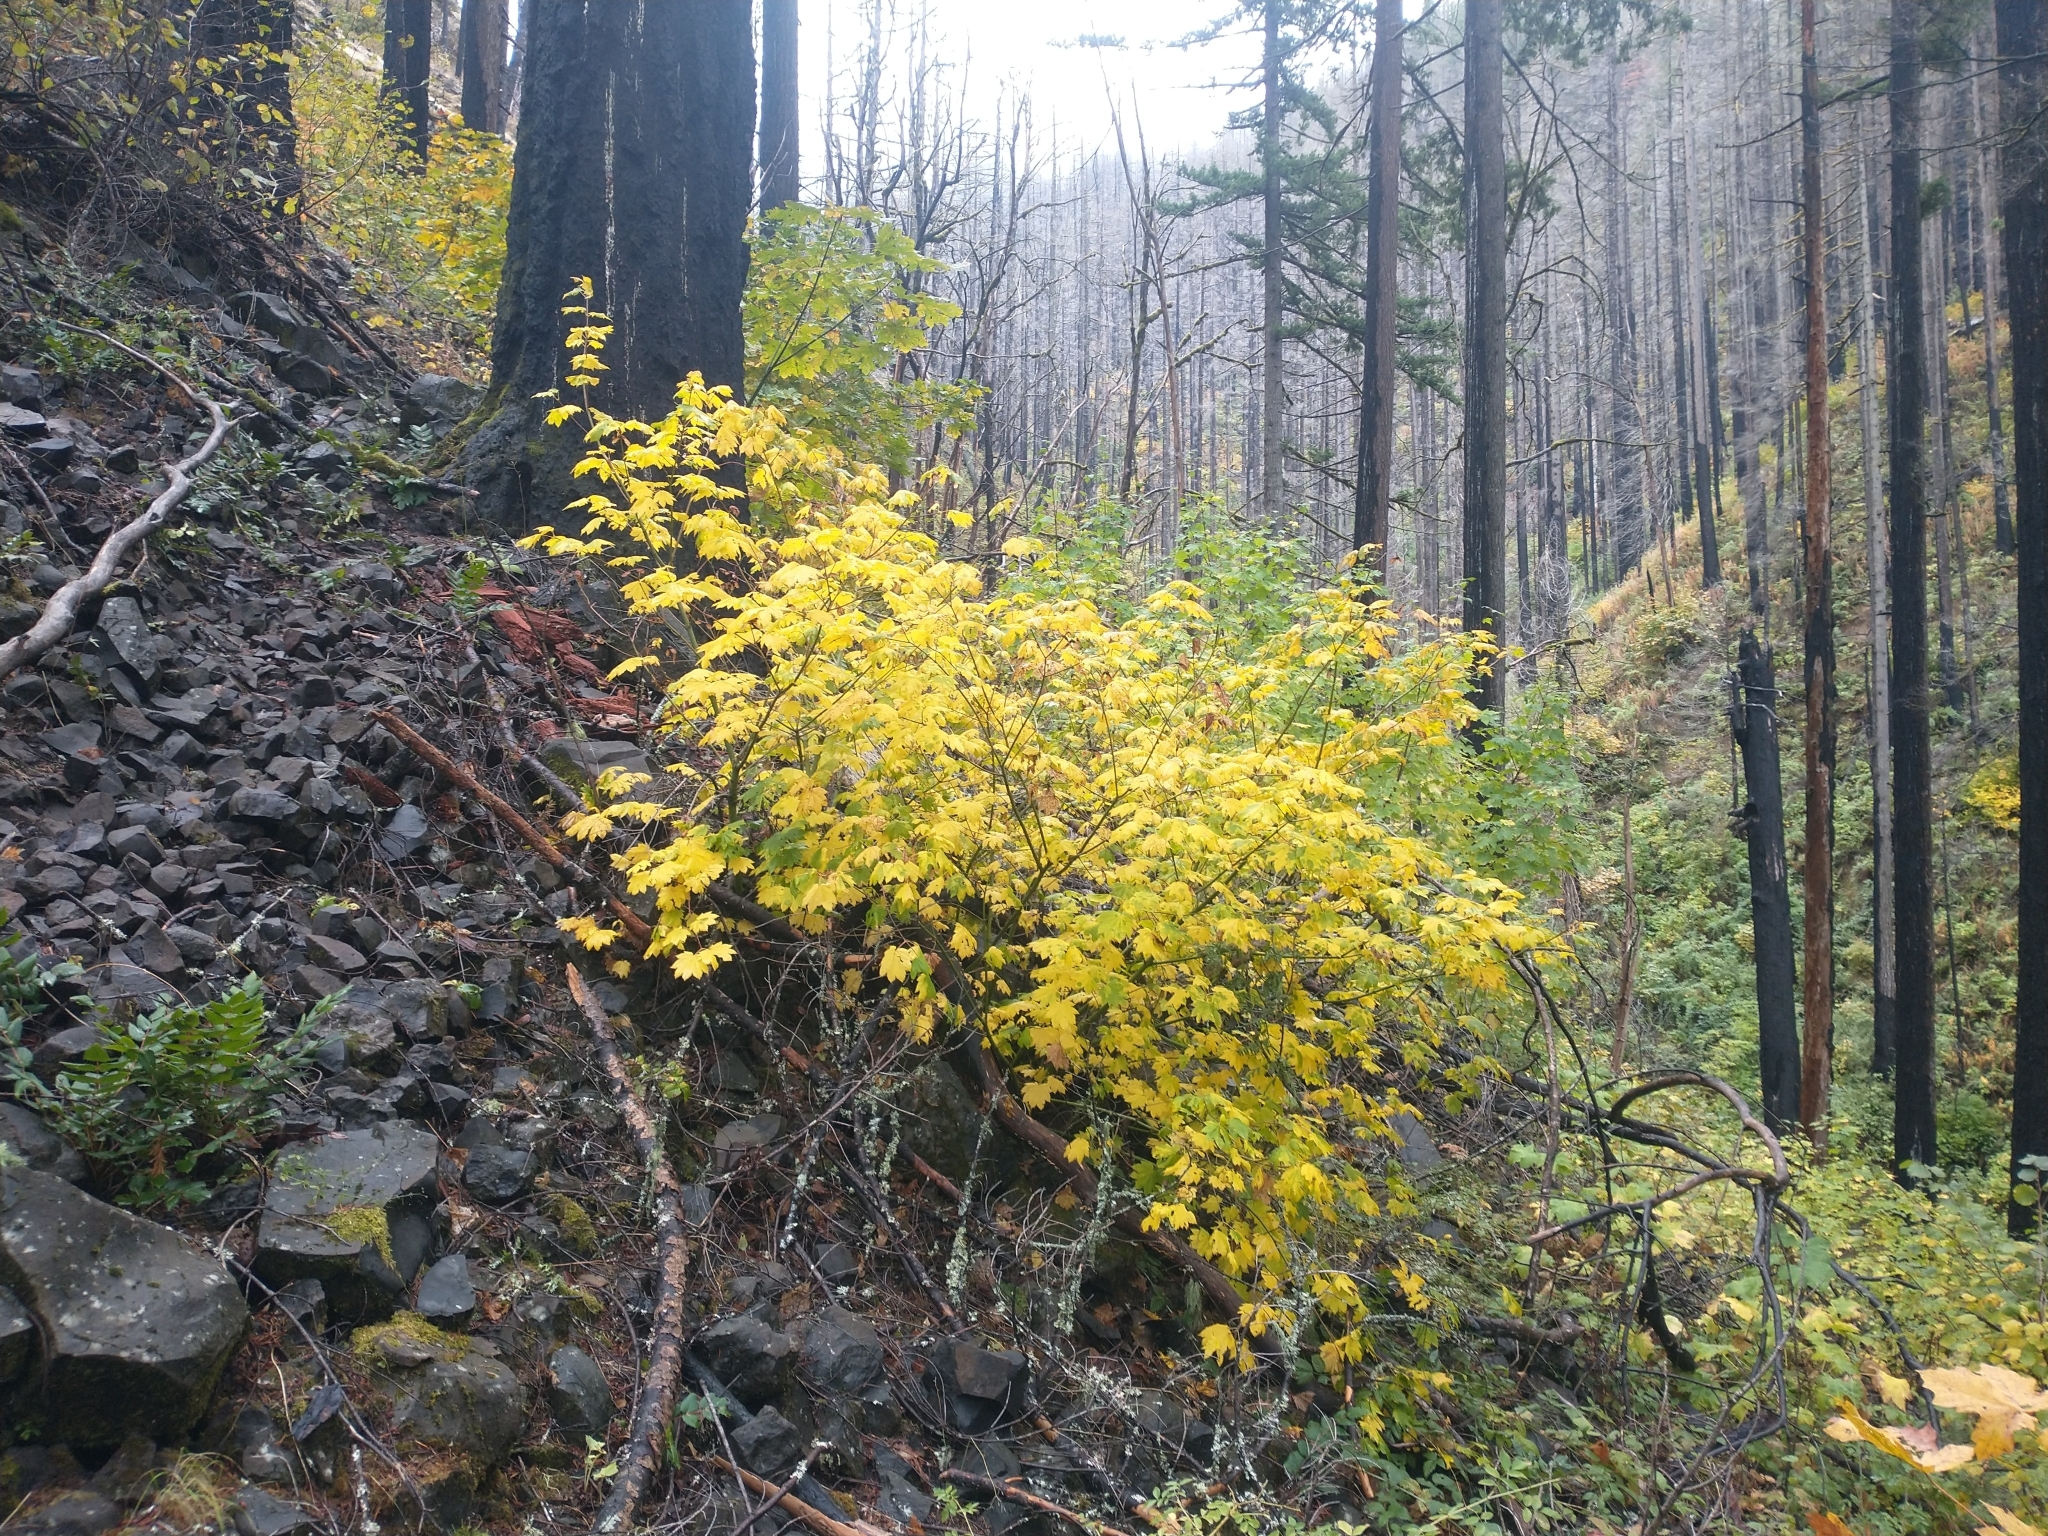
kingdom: Plantae
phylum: Tracheophyta
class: Magnoliopsida
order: Sapindales
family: Sapindaceae
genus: Acer
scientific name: Acer circinatum
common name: Vine maple
